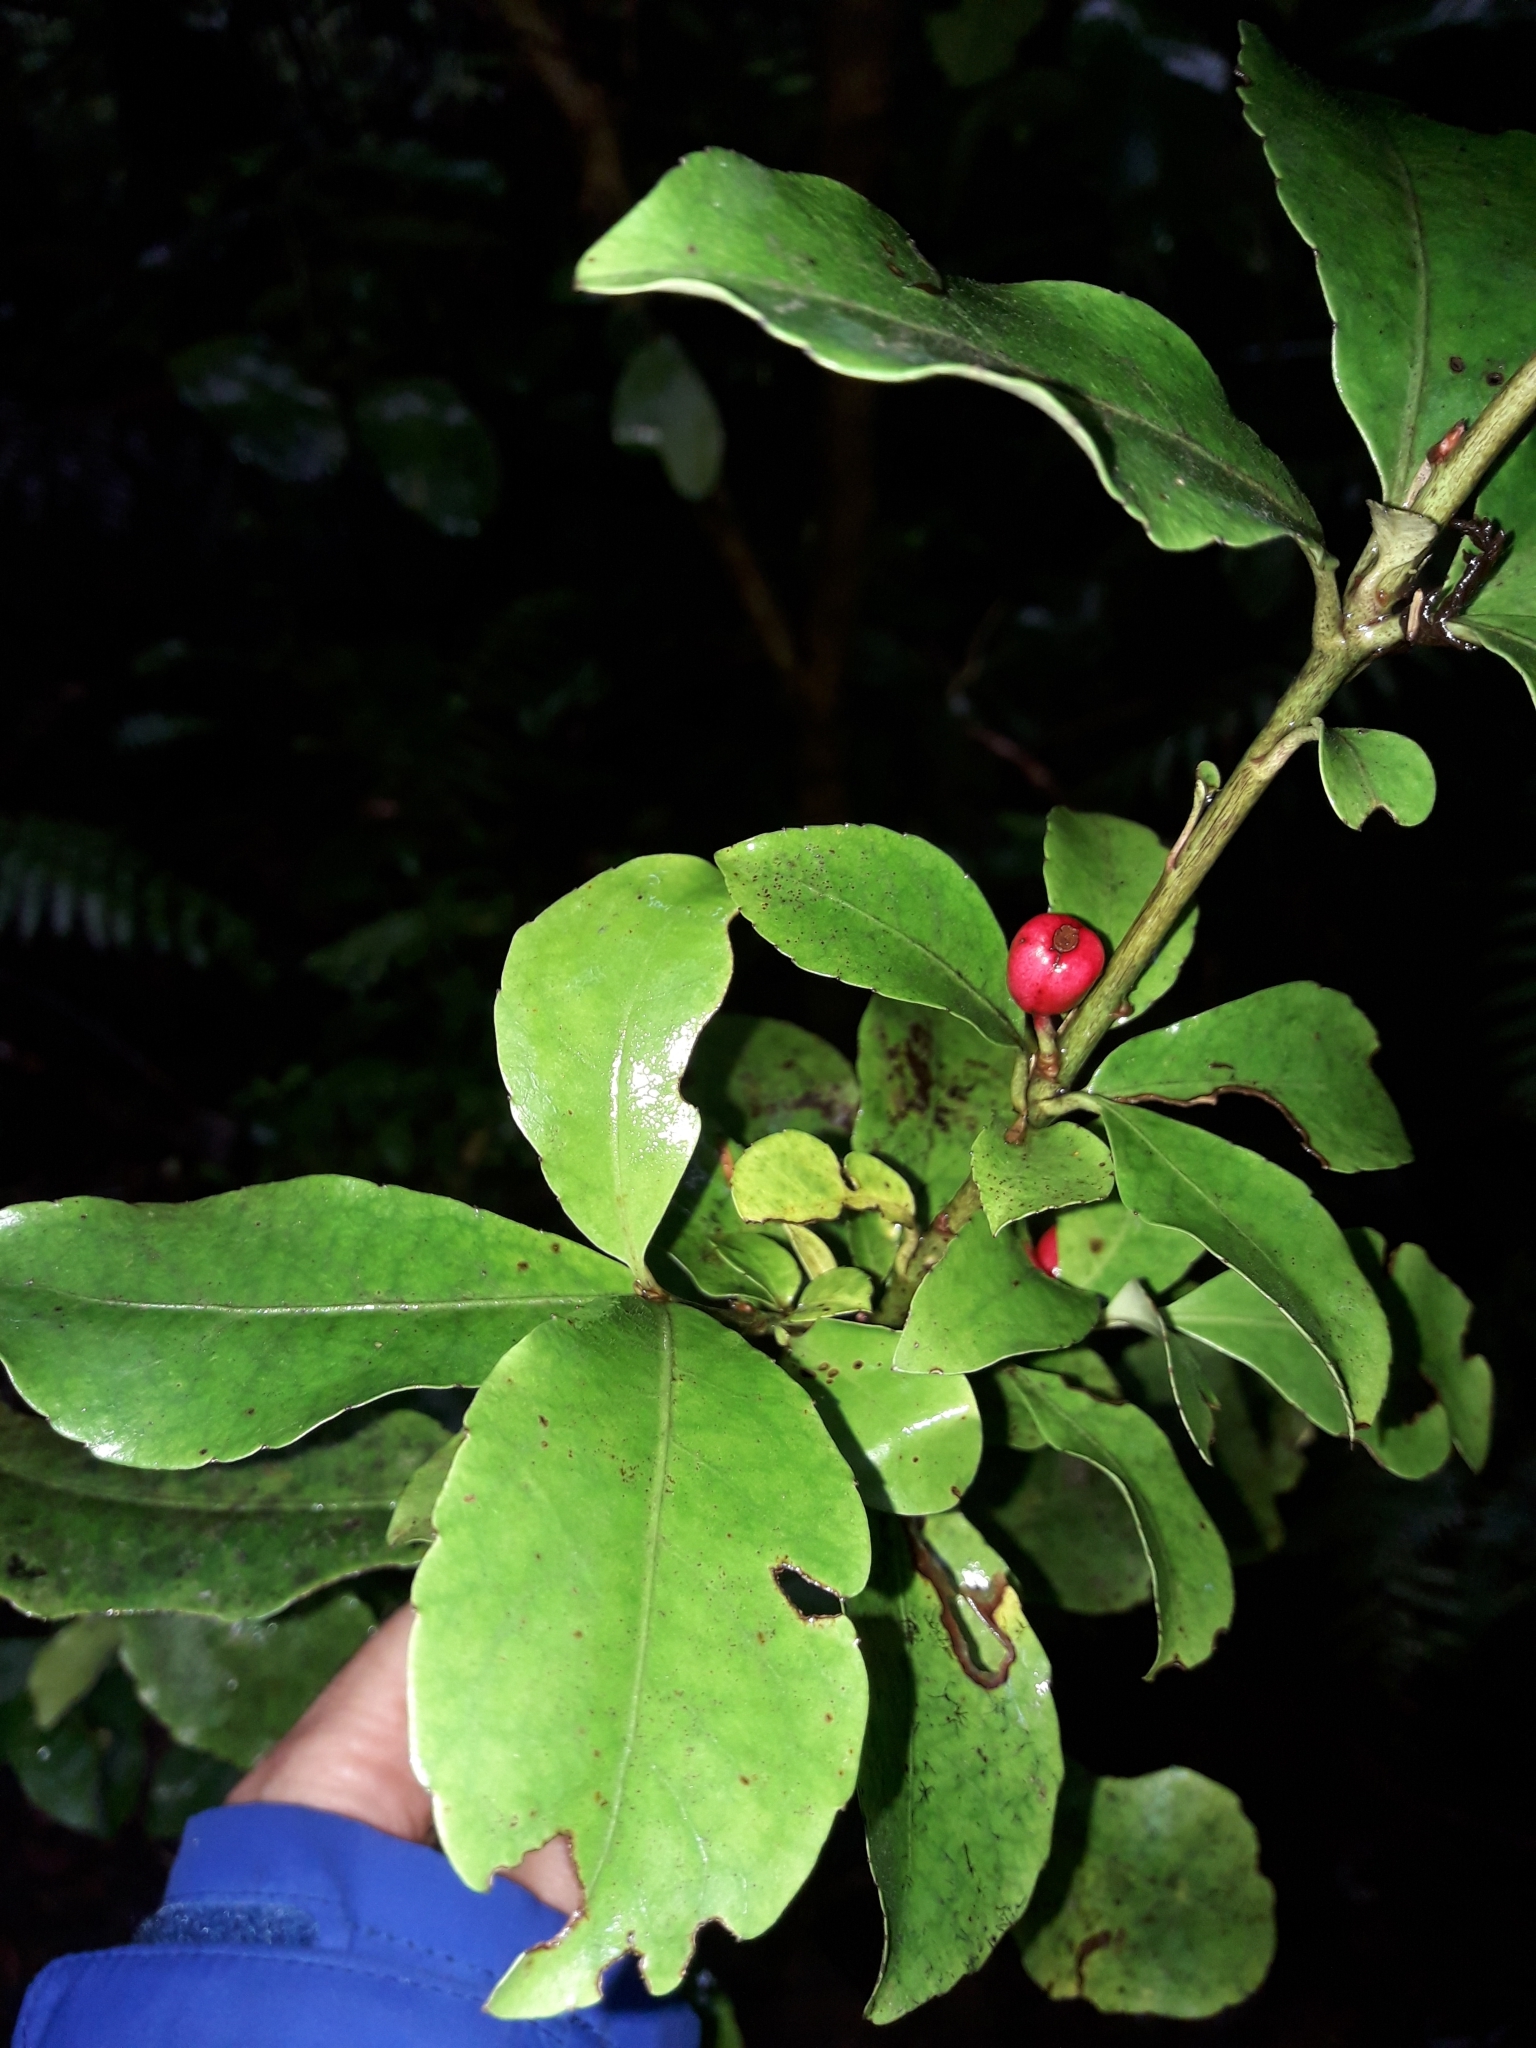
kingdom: Plantae
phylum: Tracheophyta
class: Magnoliopsida
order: Asterales
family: Alseuosmiaceae
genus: Alseuosmia
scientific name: Alseuosmia macrophylla
